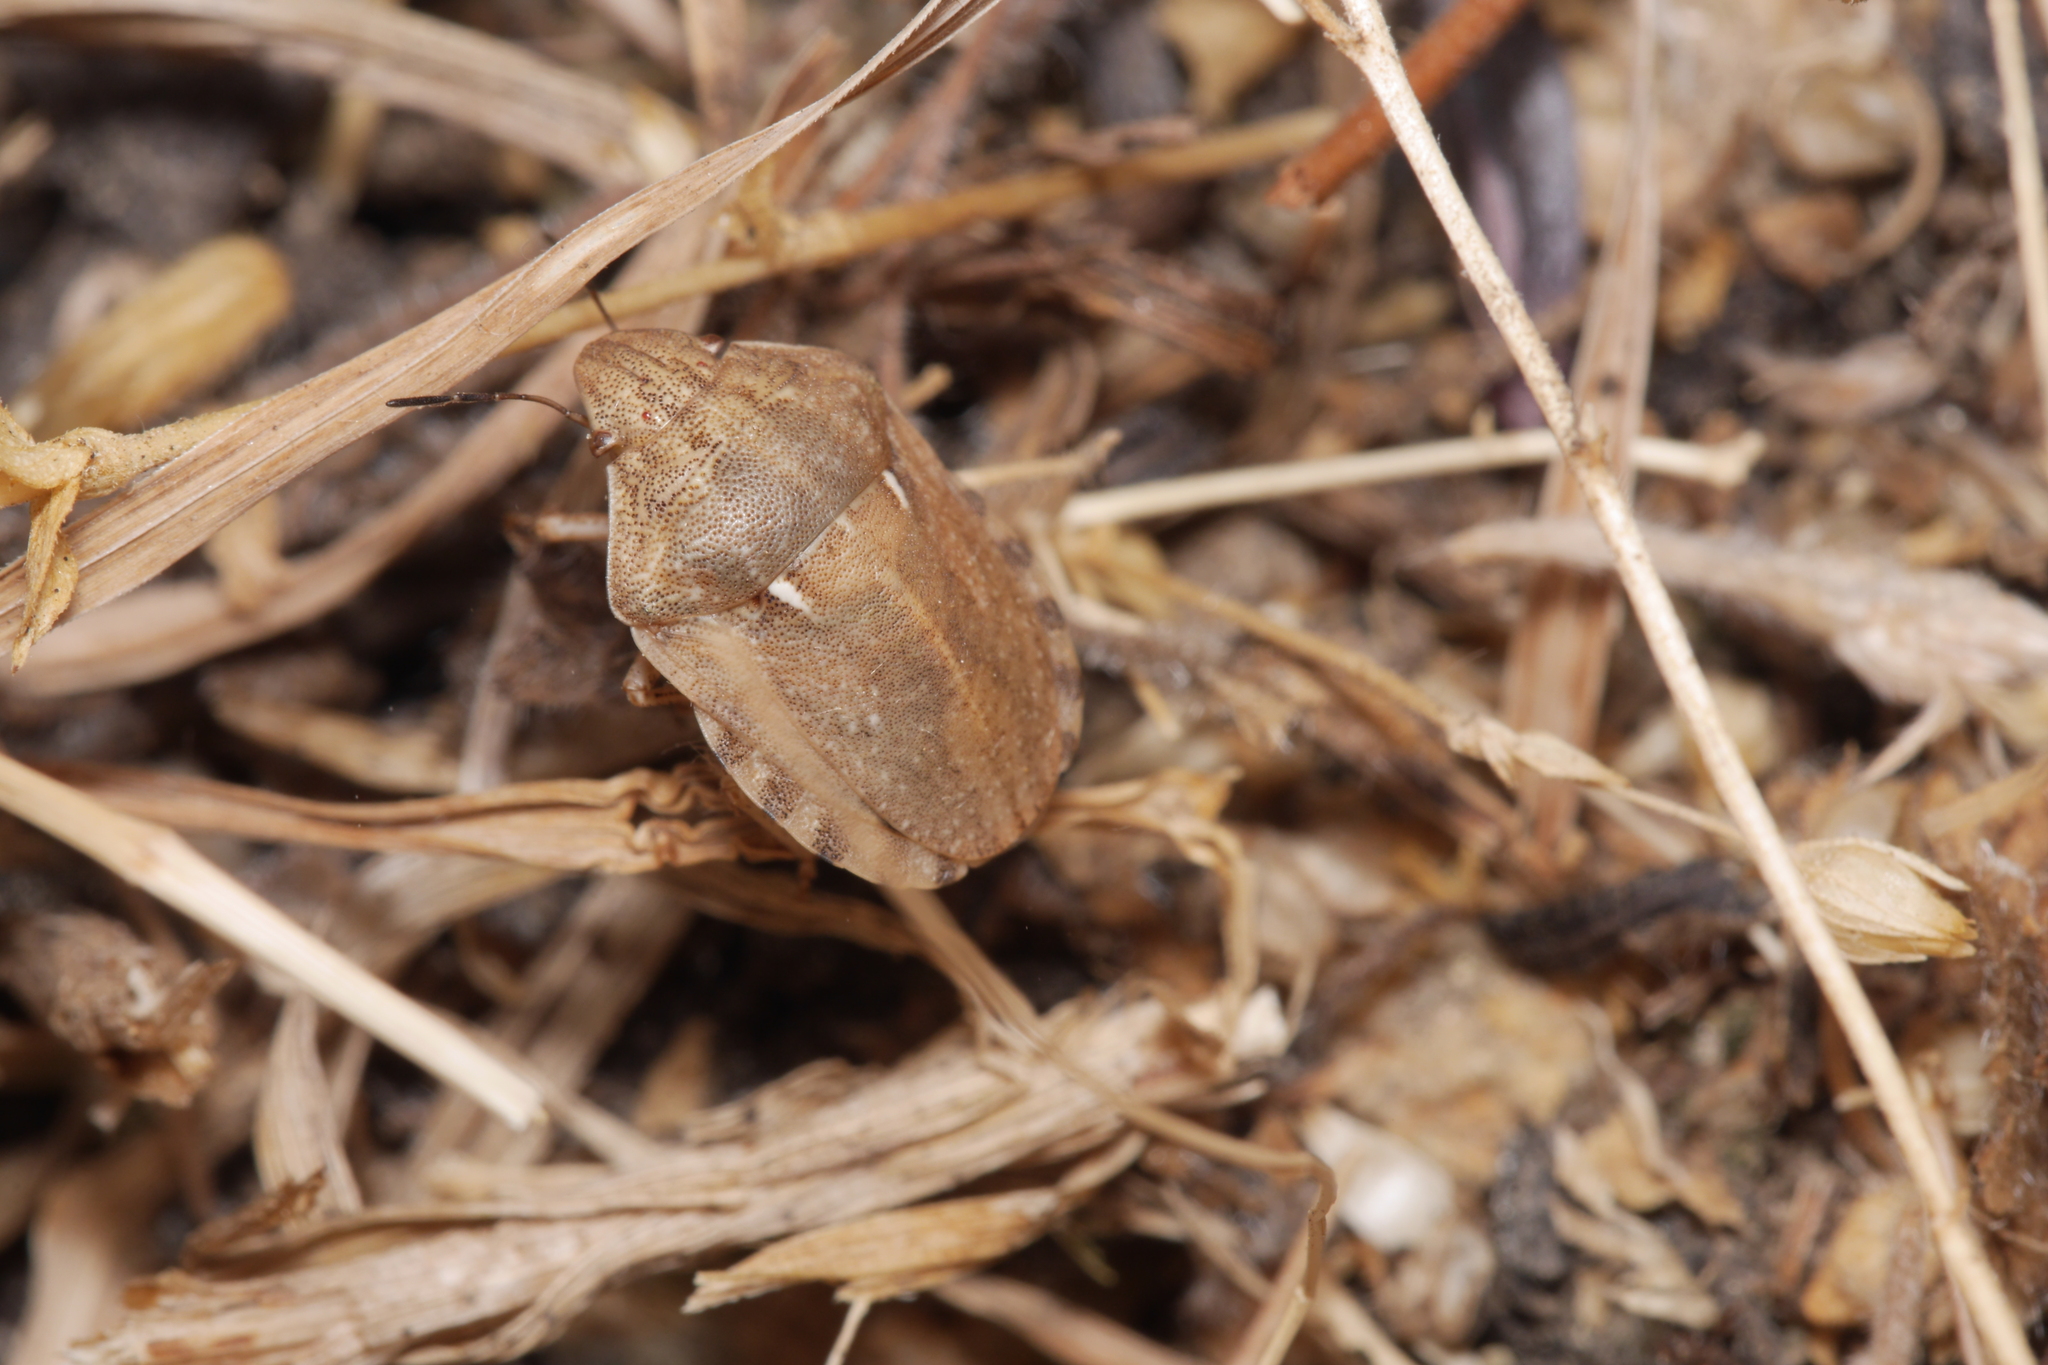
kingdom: Animalia
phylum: Arthropoda
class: Insecta
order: Hemiptera
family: Scutelleridae
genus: Eurygaster
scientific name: Eurygaster maura
